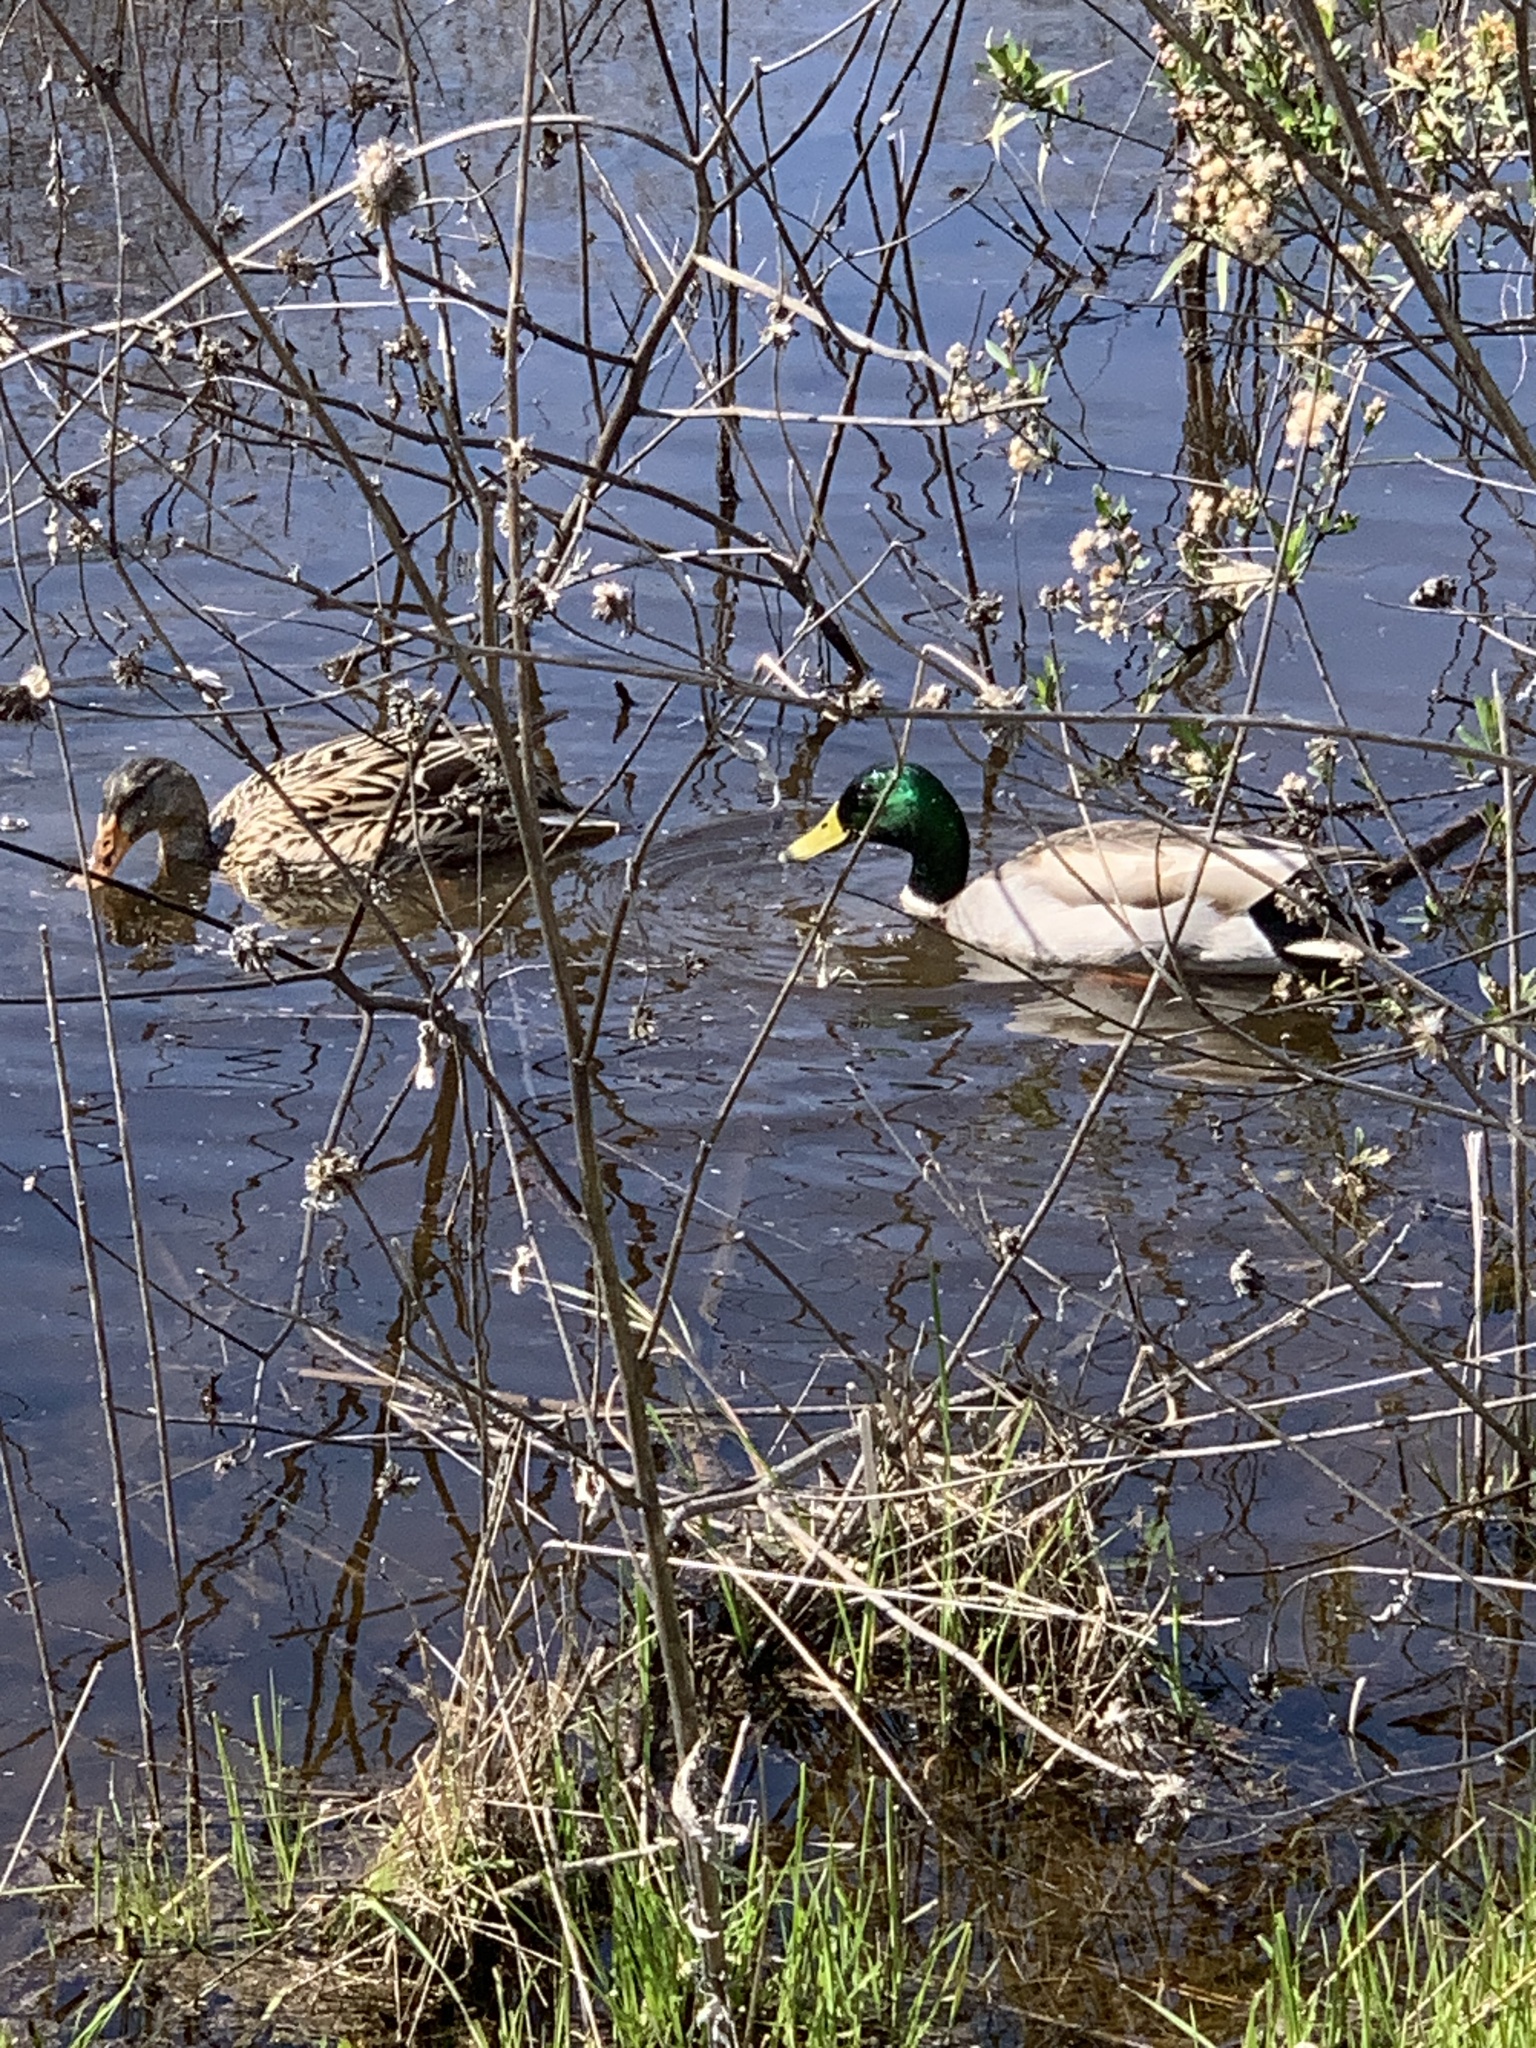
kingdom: Animalia
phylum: Chordata
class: Aves
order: Anseriformes
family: Anatidae
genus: Anas
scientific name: Anas platyrhynchos
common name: Mallard
